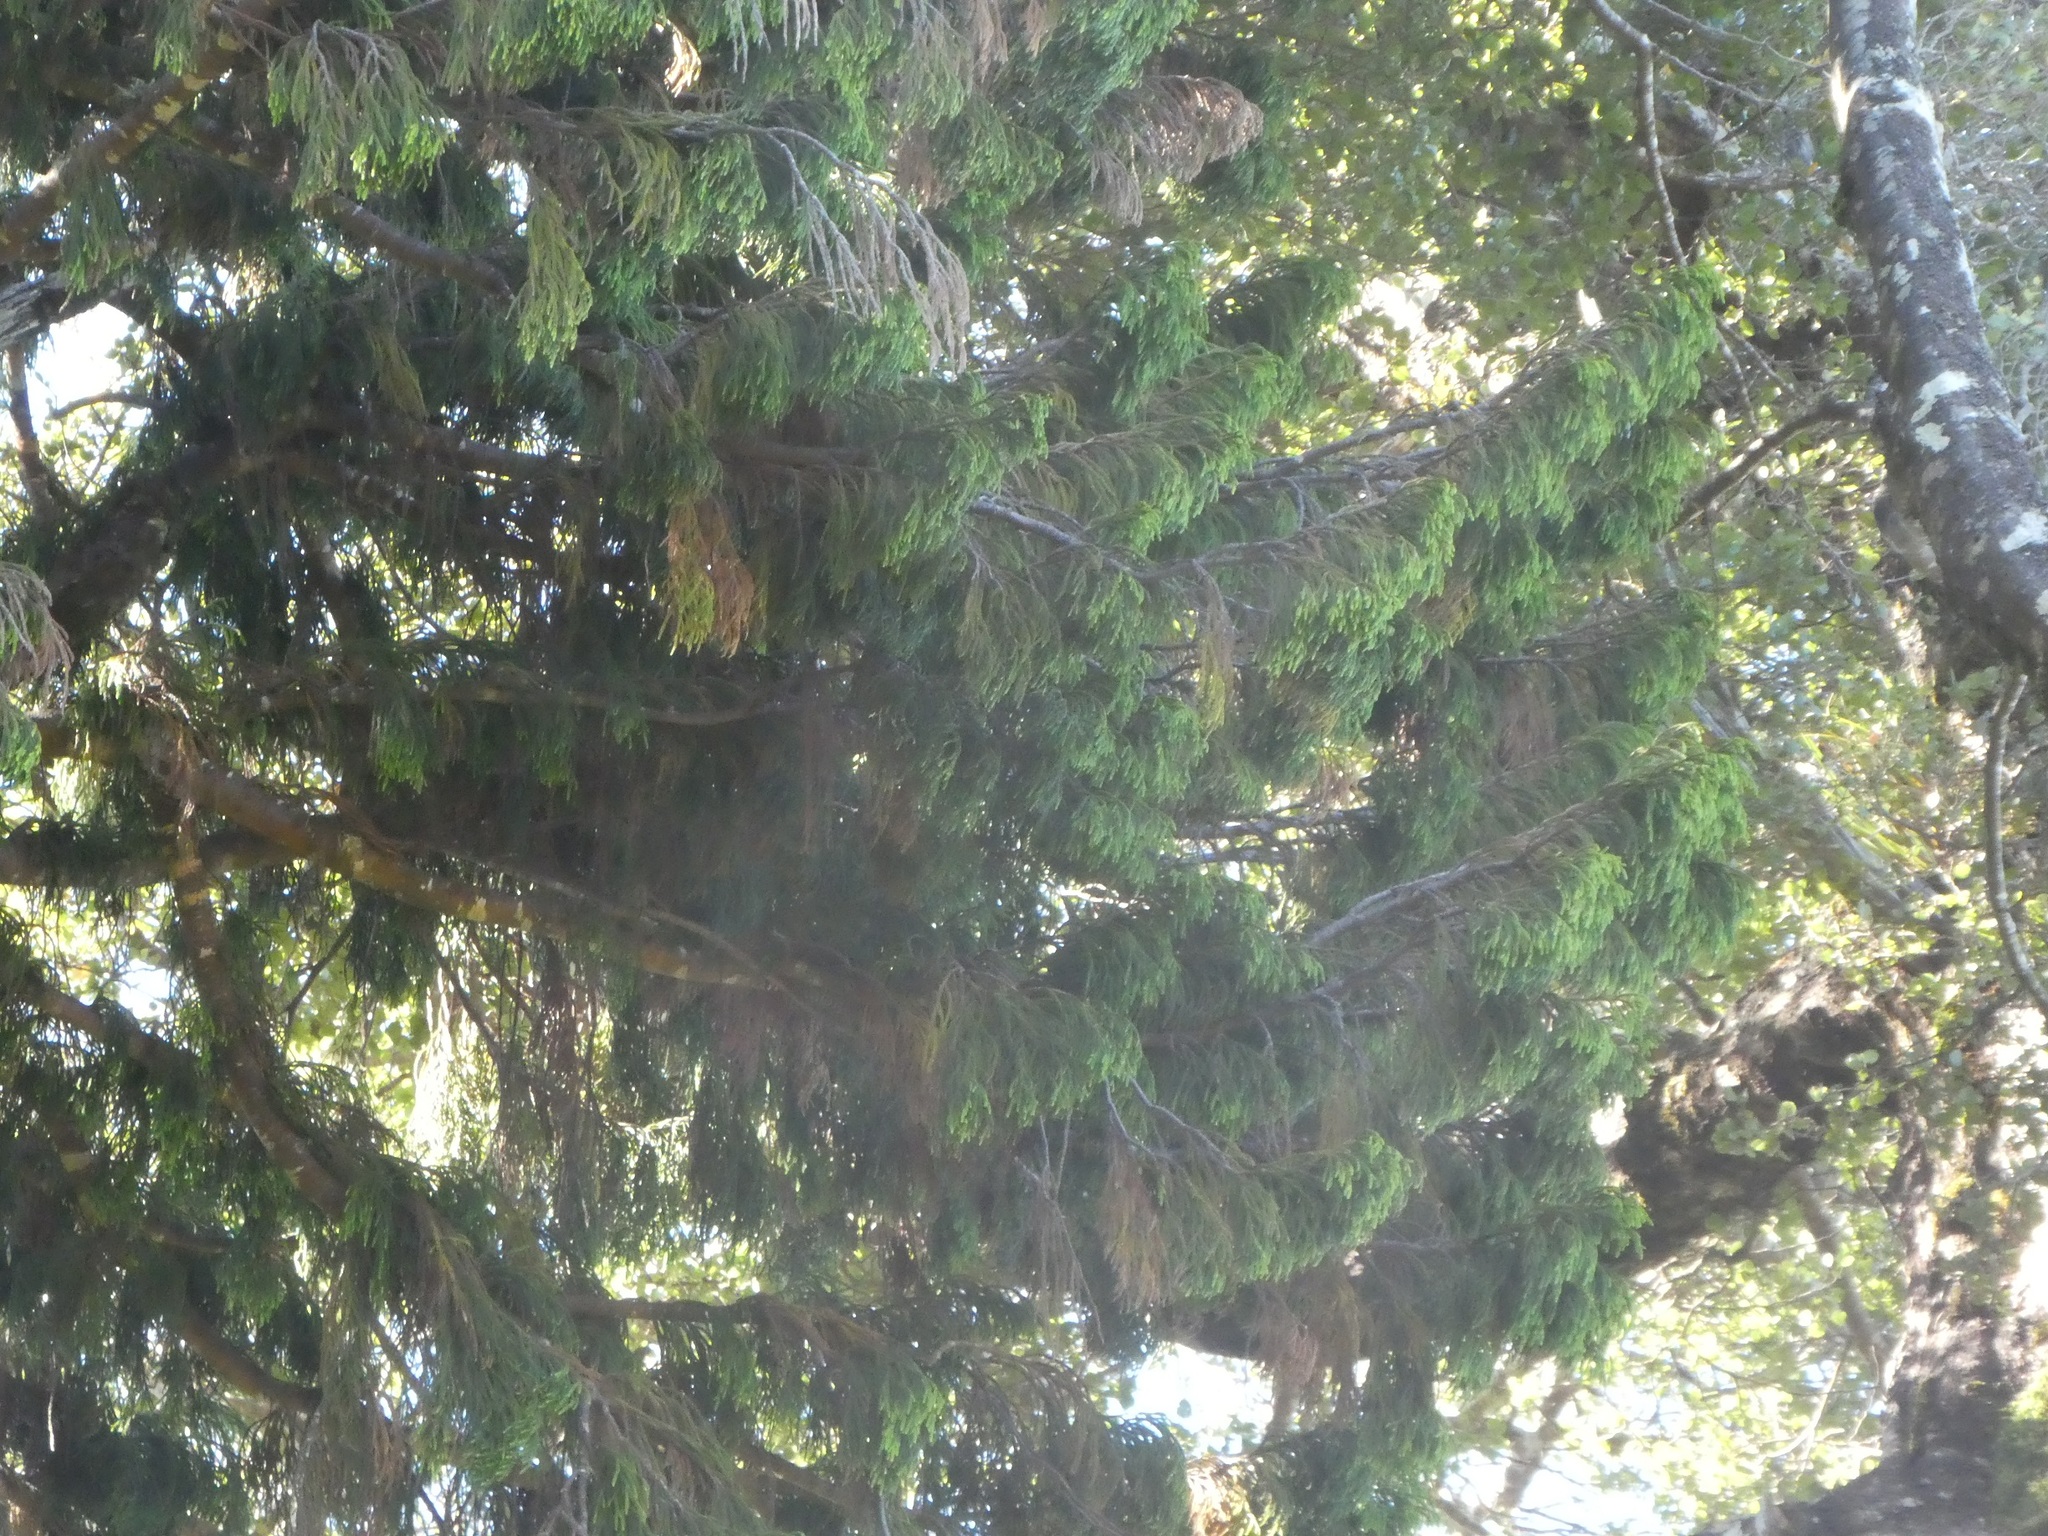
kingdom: Plantae
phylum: Tracheophyta
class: Pinopsida
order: Pinales
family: Podocarpaceae
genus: Dacrydium
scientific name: Dacrydium cupressinum
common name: Red pine
